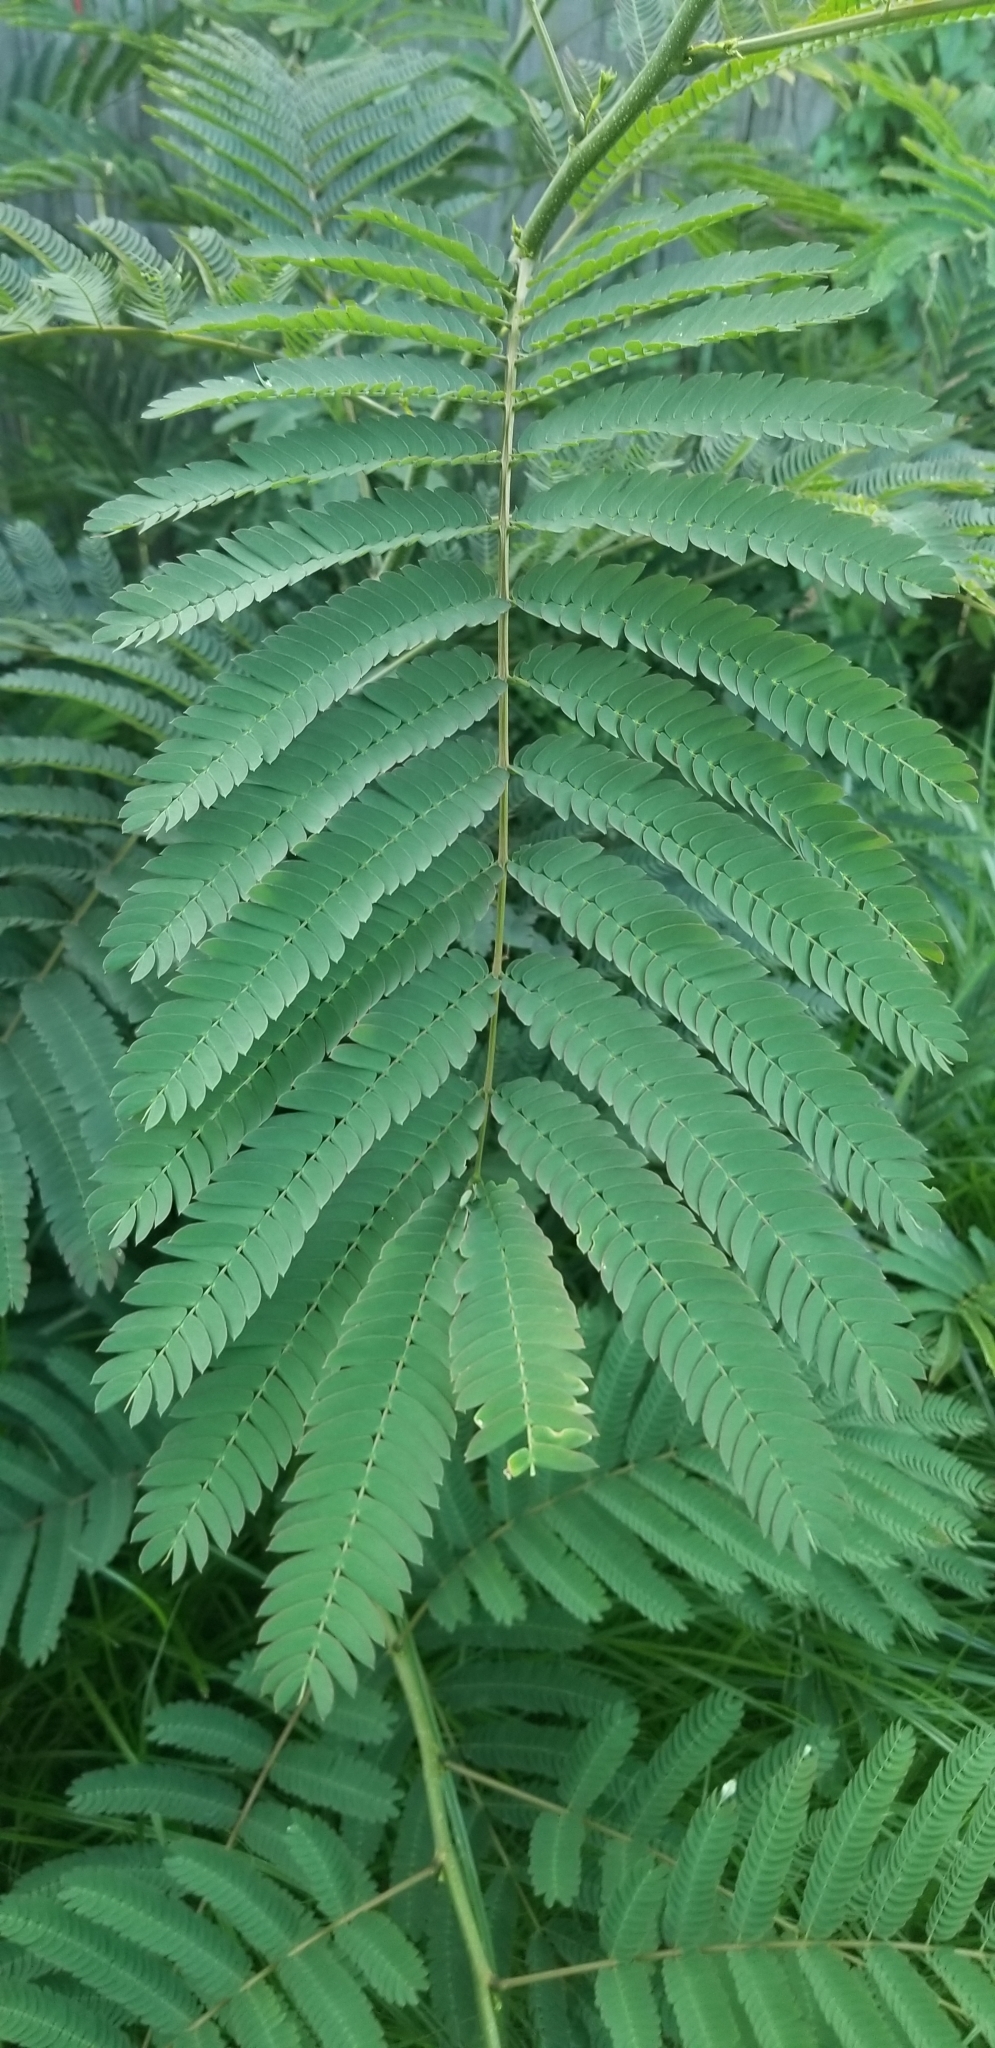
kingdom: Plantae
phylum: Tracheophyta
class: Magnoliopsida
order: Fabales
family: Fabaceae
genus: Albizia
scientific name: Albizia julibrissin
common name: Silktree
